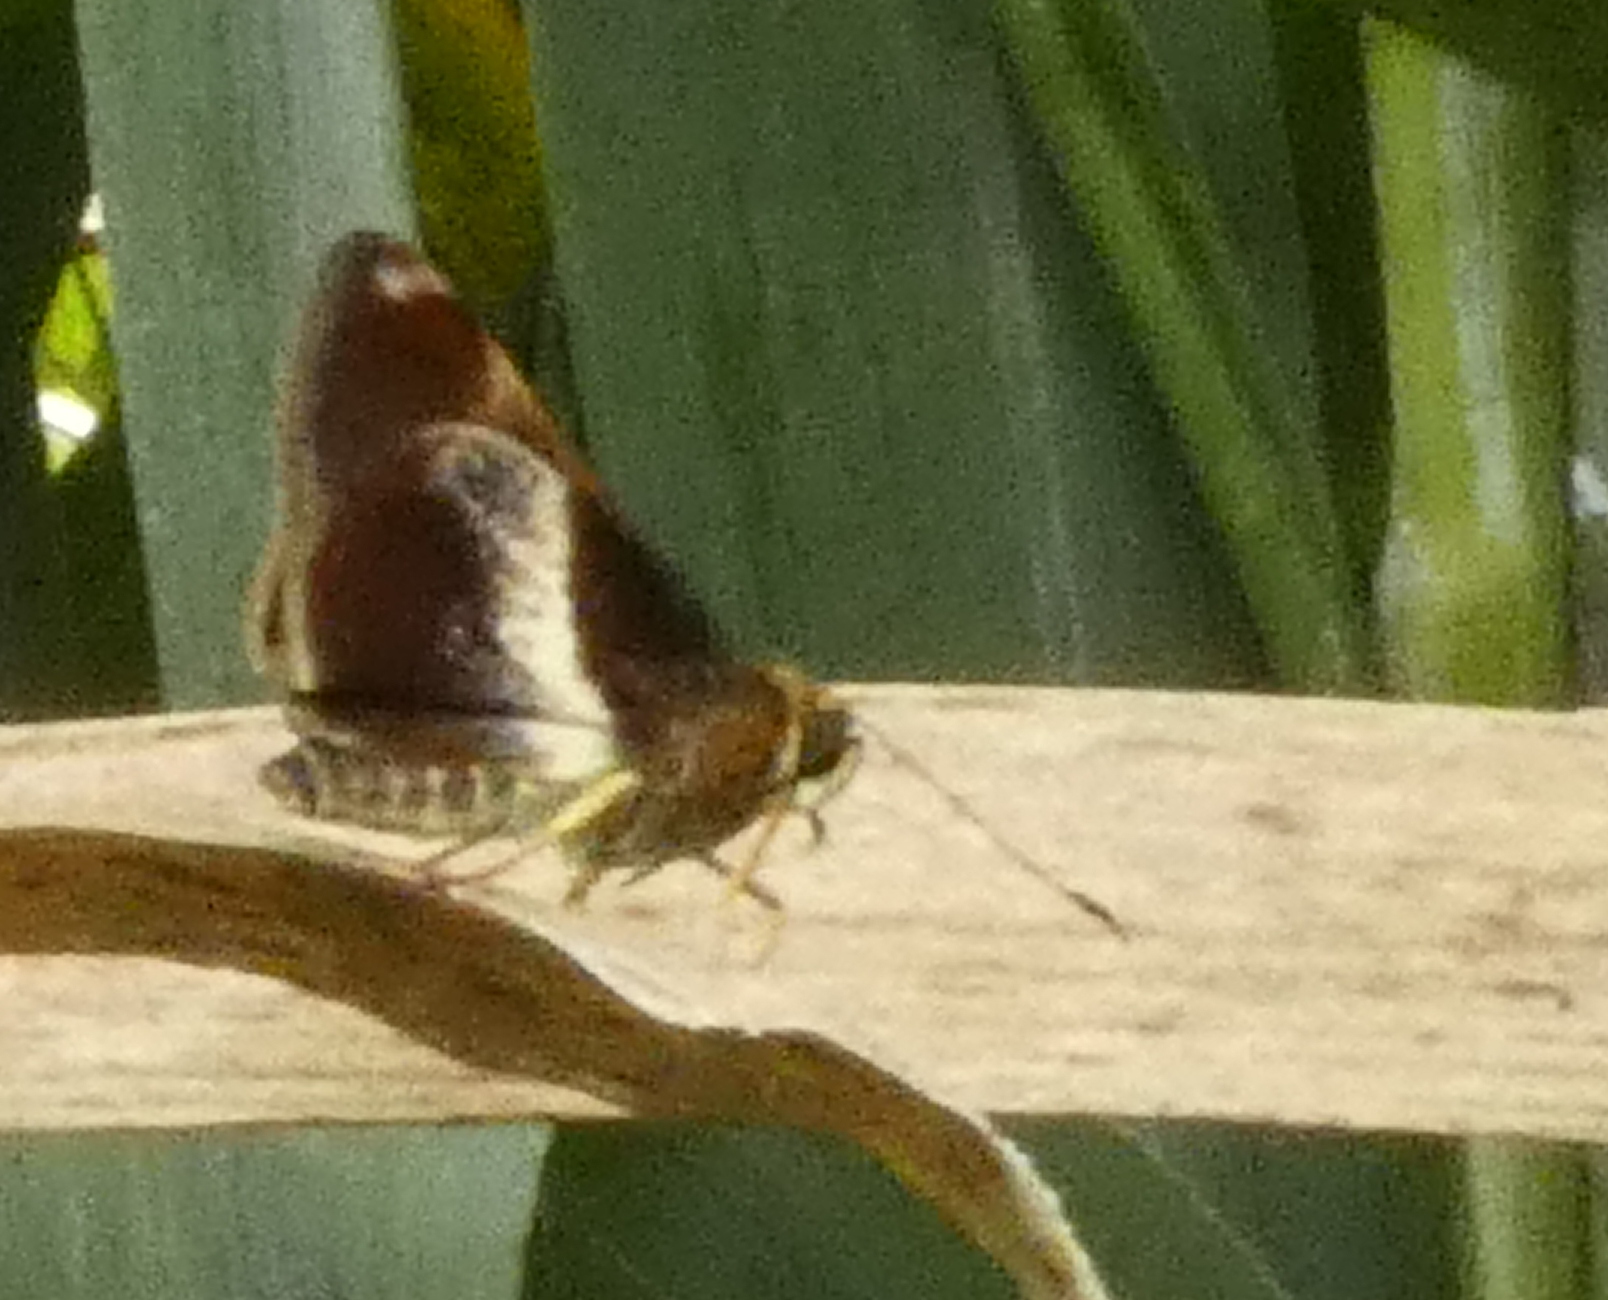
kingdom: Animalia
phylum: Arthropoda
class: Insecta
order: Lepidoptera
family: Hesperiidae
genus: Moeris
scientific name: Moeris remus
